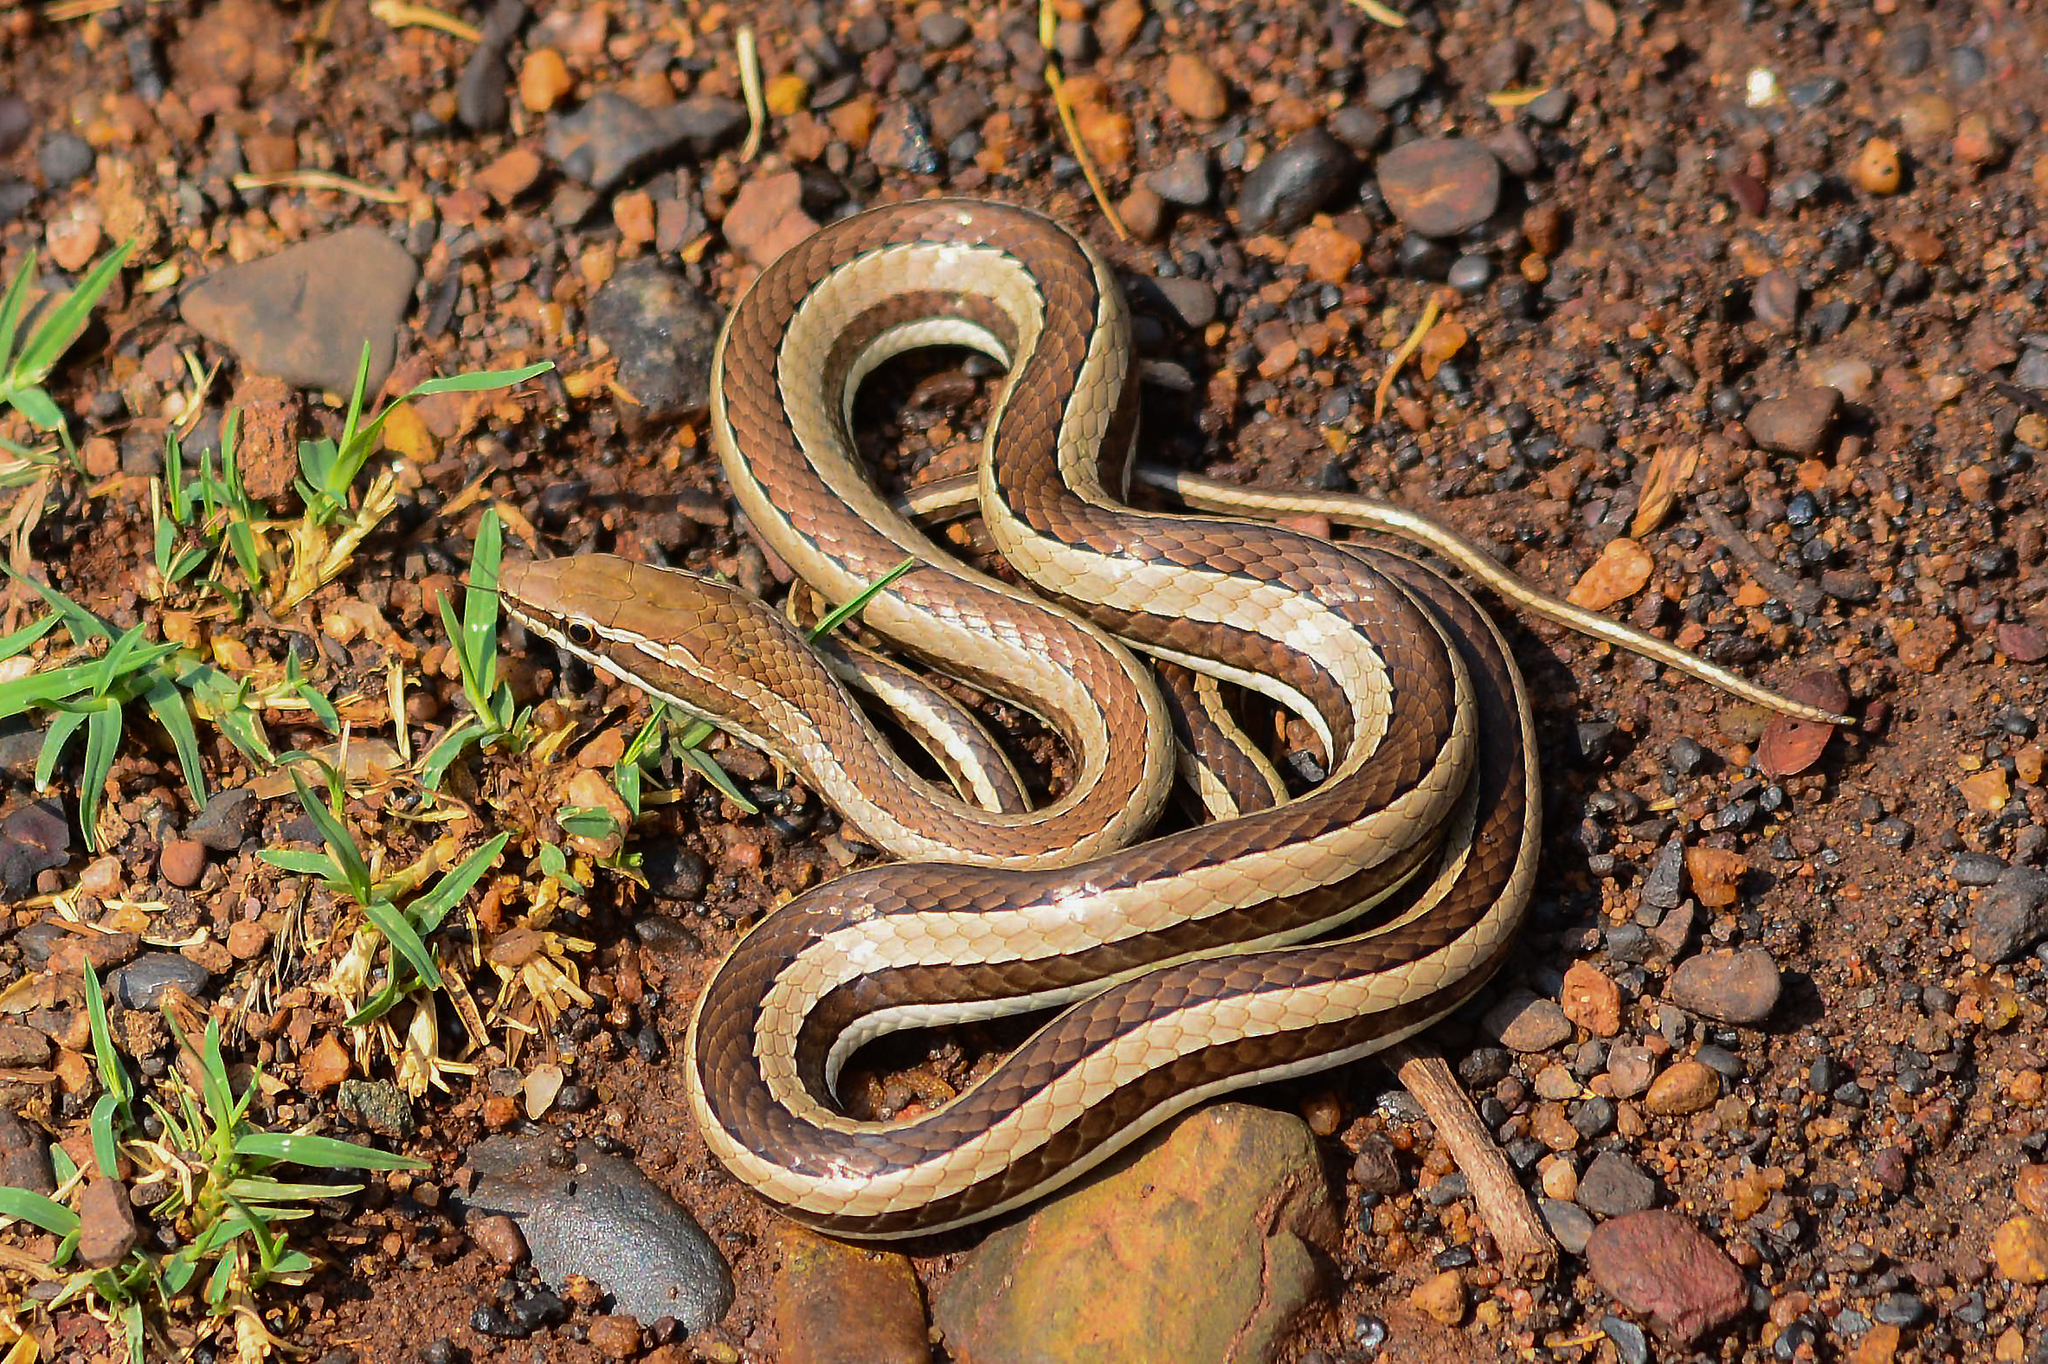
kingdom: Animalia
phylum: Chordata
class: Squamata
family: Psammophiidae
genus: Psammophis
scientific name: Psammophis condanarus
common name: Sand snake
